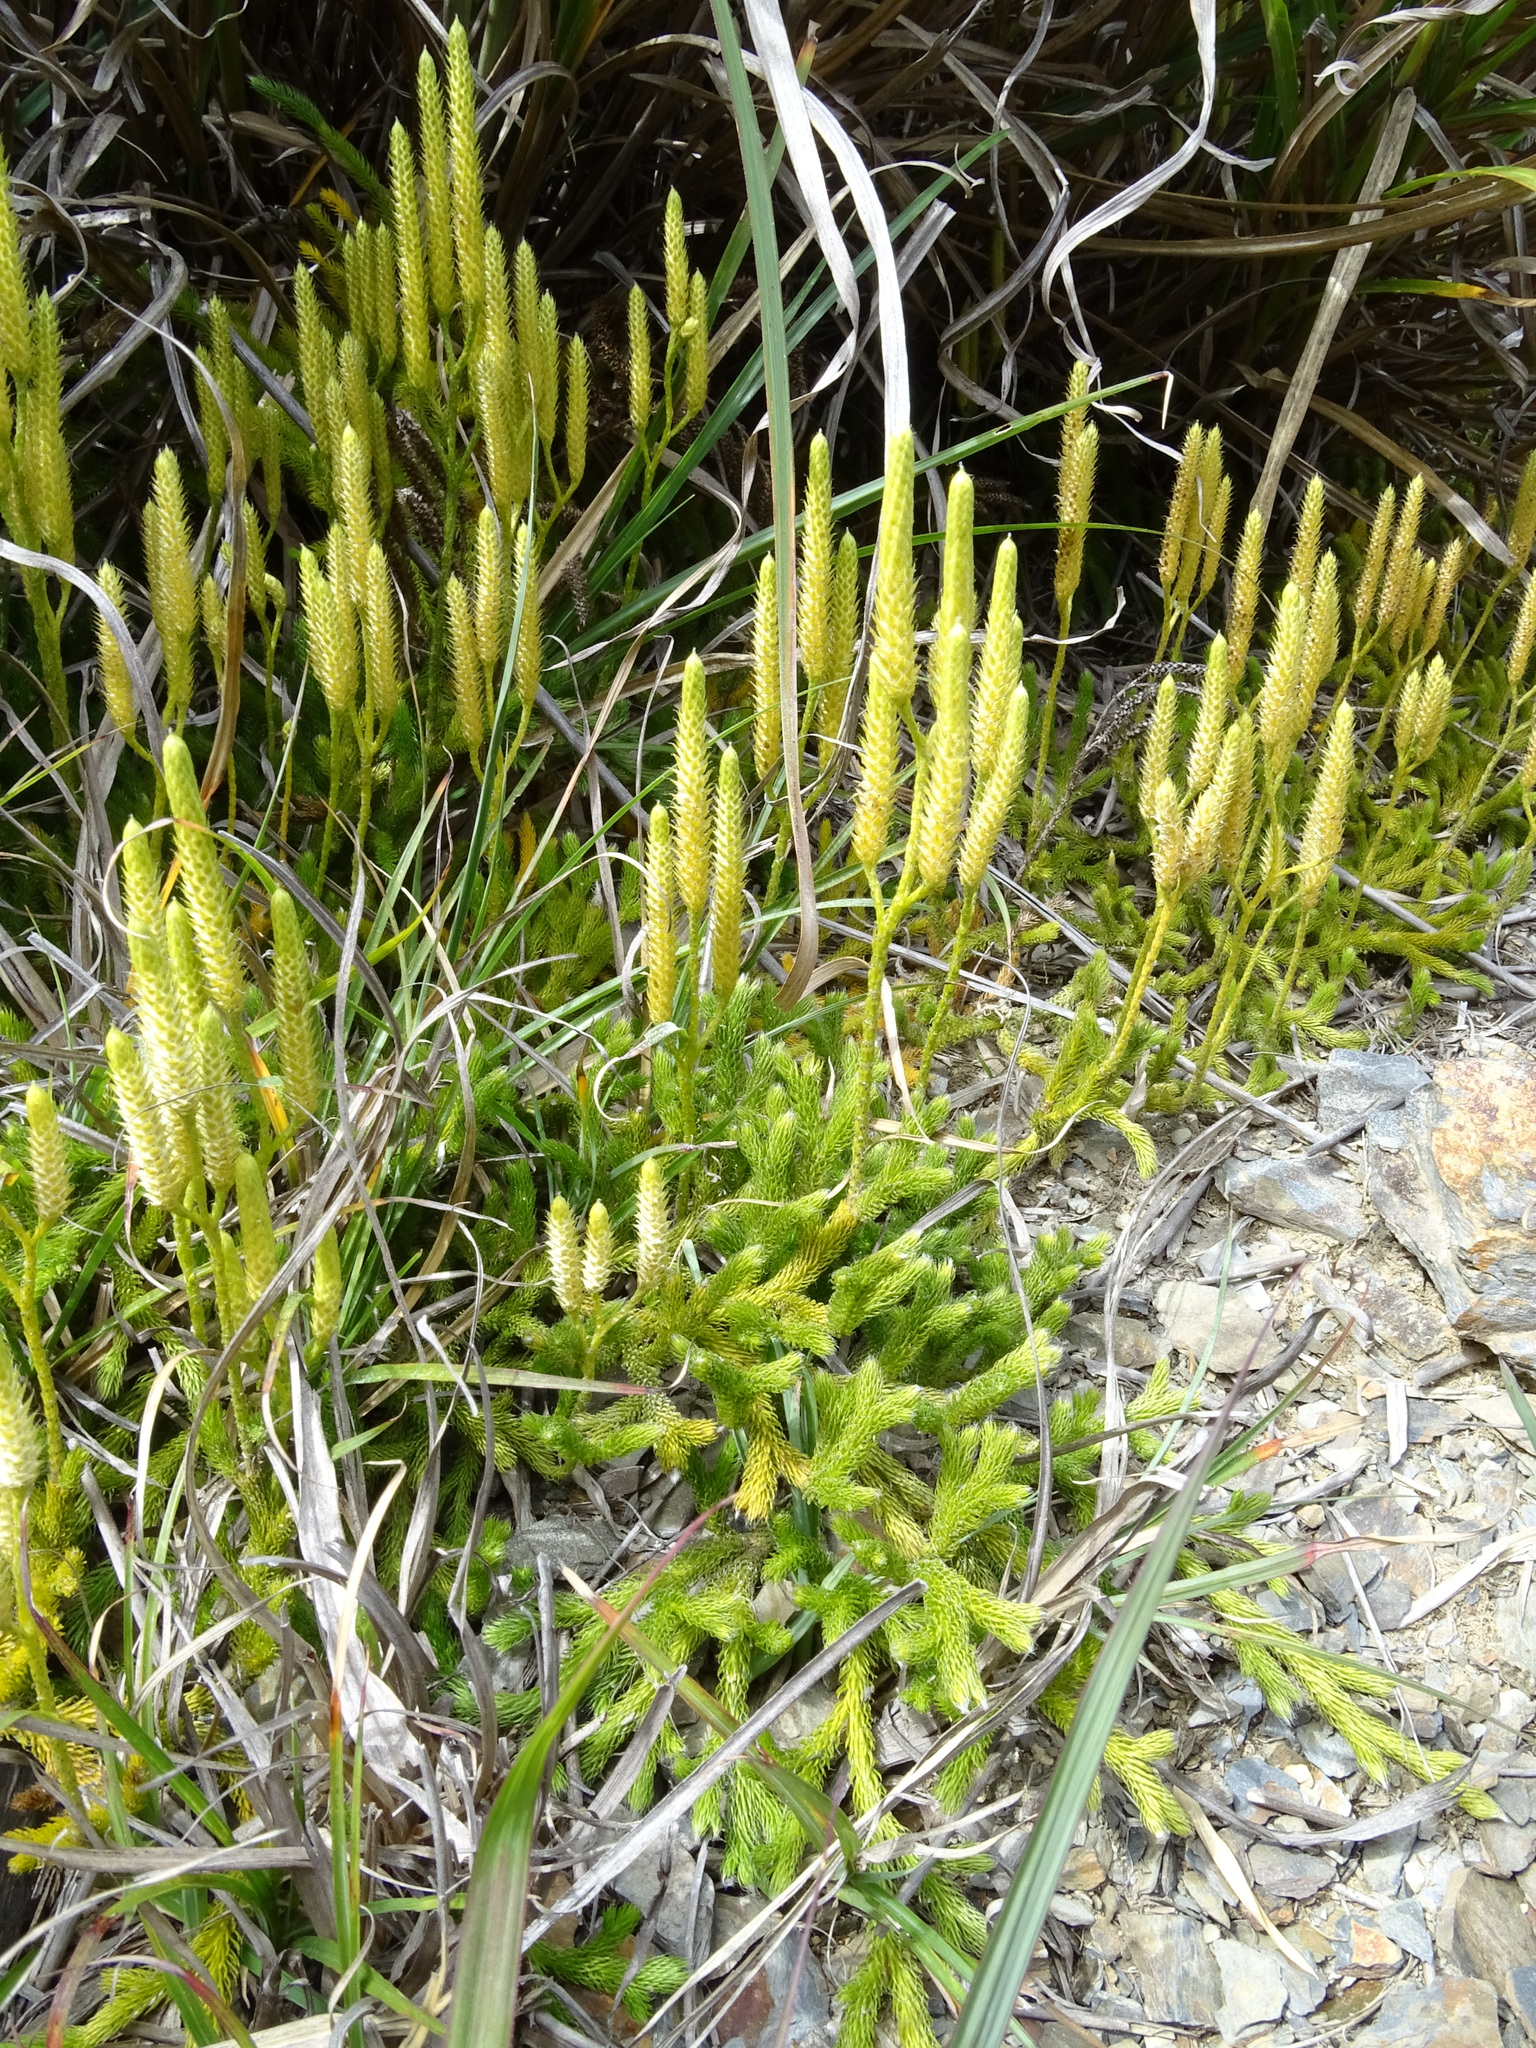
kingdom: Plantae
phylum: Tracheophyta
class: Lycopodiopsida
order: Lycopodiales
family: Lycopodiaceae
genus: Lycopodium
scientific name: Lycopodium clavatum
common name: Stag's-horn clubmoss
